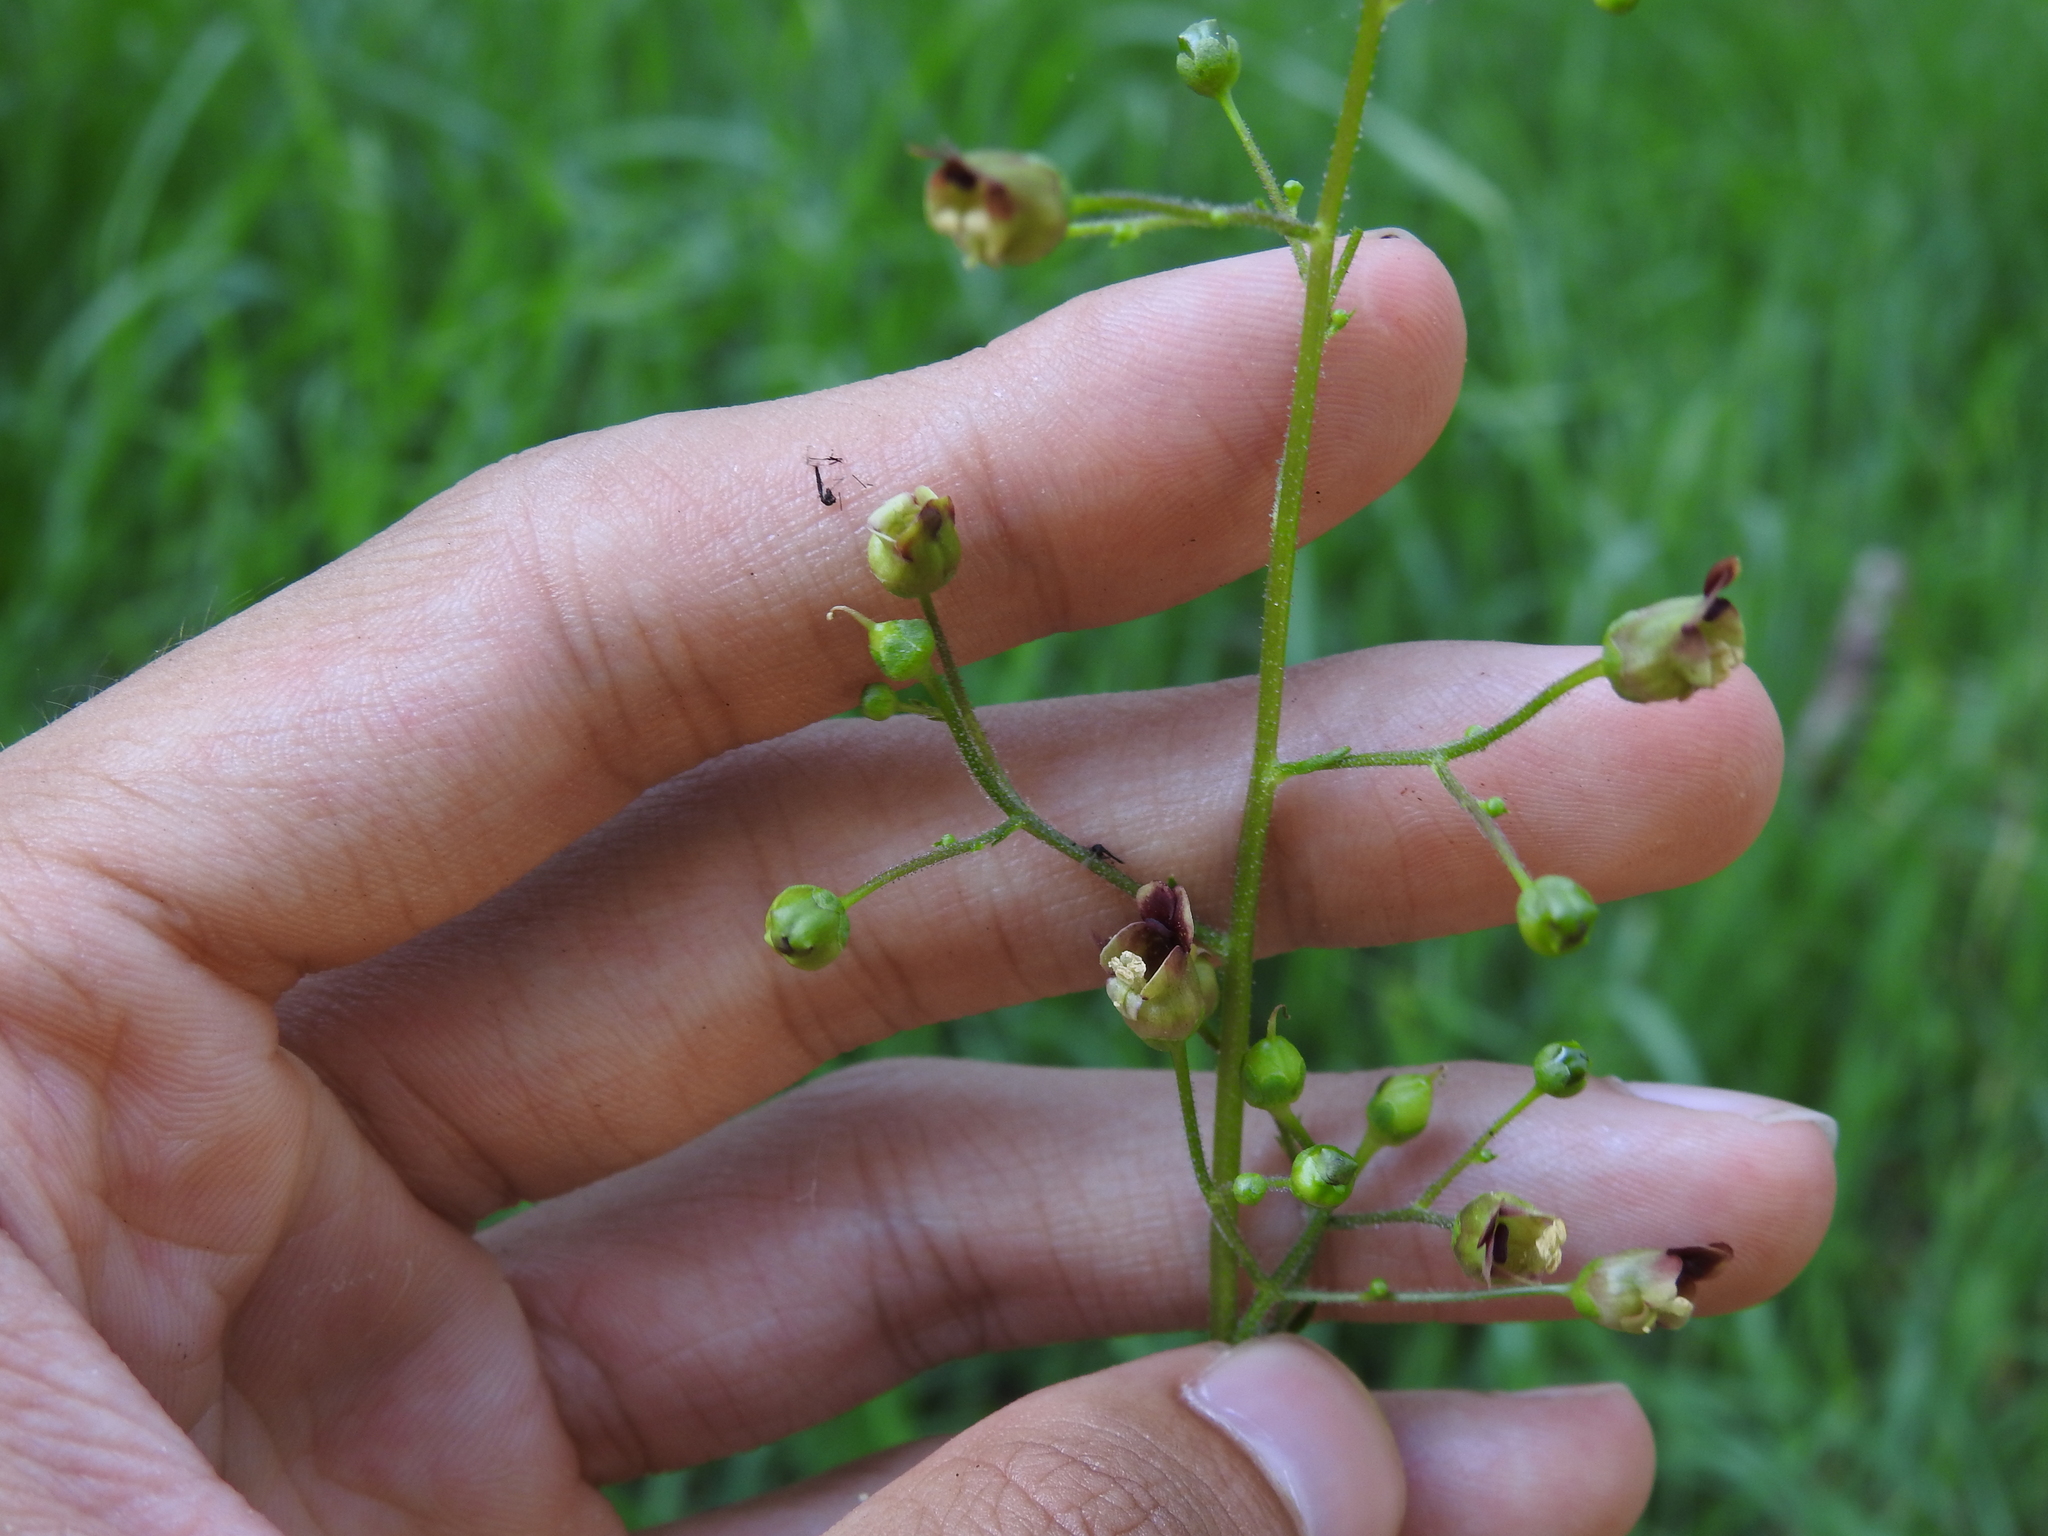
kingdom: Plantae
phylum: Tracheophyta
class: Magnoliopsida
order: Lamiales
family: Scrophulariaceae
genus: Scrophularia
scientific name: Scrophularia umbrosa
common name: Green figwort
